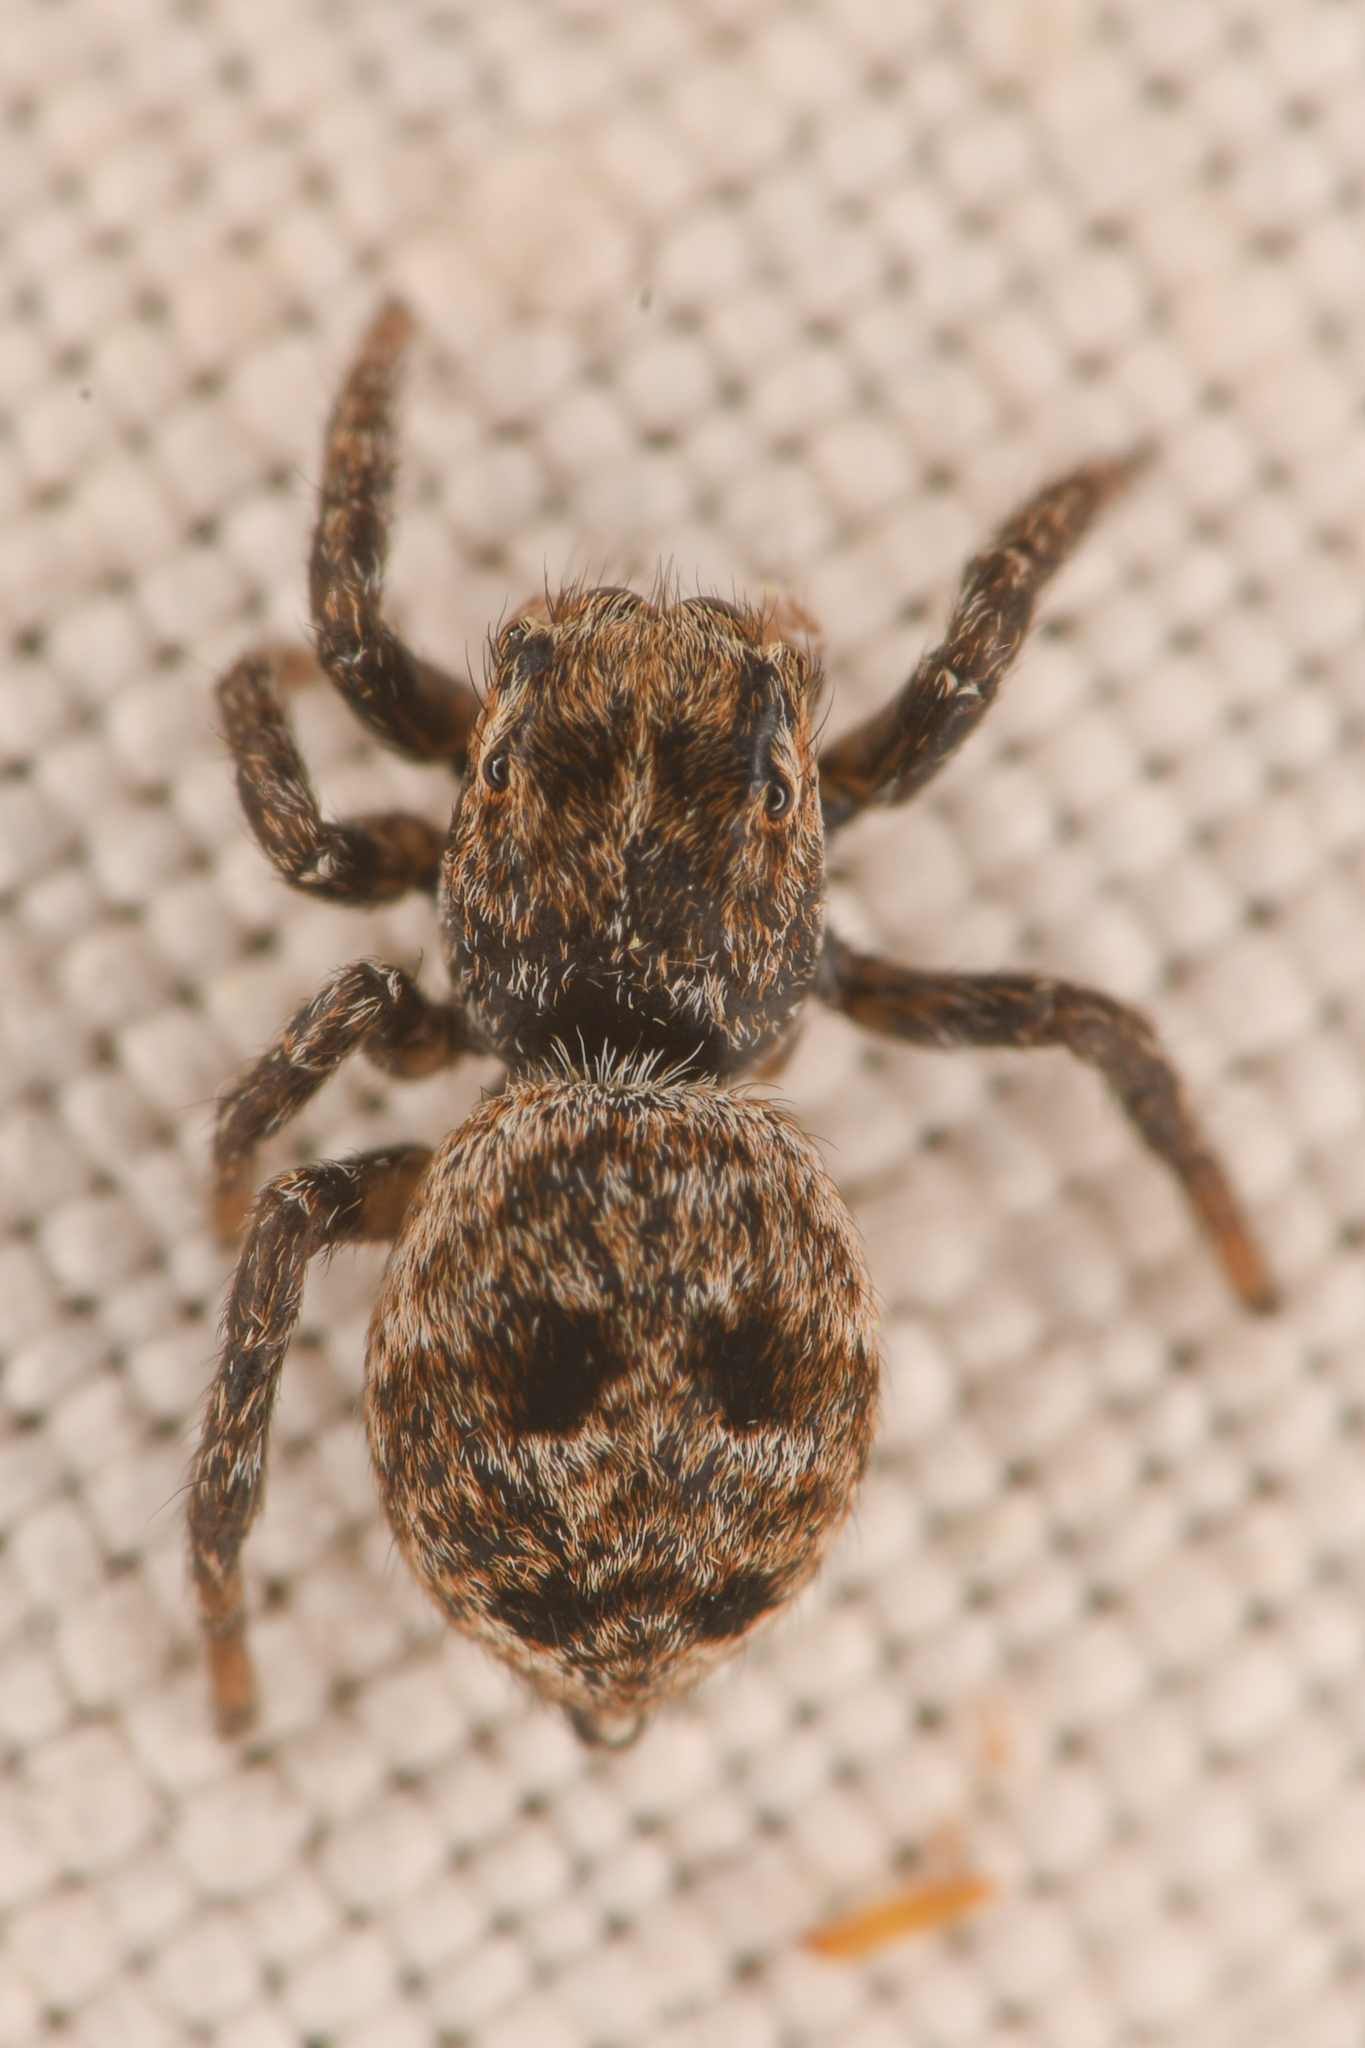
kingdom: Animalia
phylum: Arthropoda
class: Arachnida
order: Araneae
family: Salticidae
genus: Attulus
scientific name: Attulus floricola
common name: Flower jumping spider
